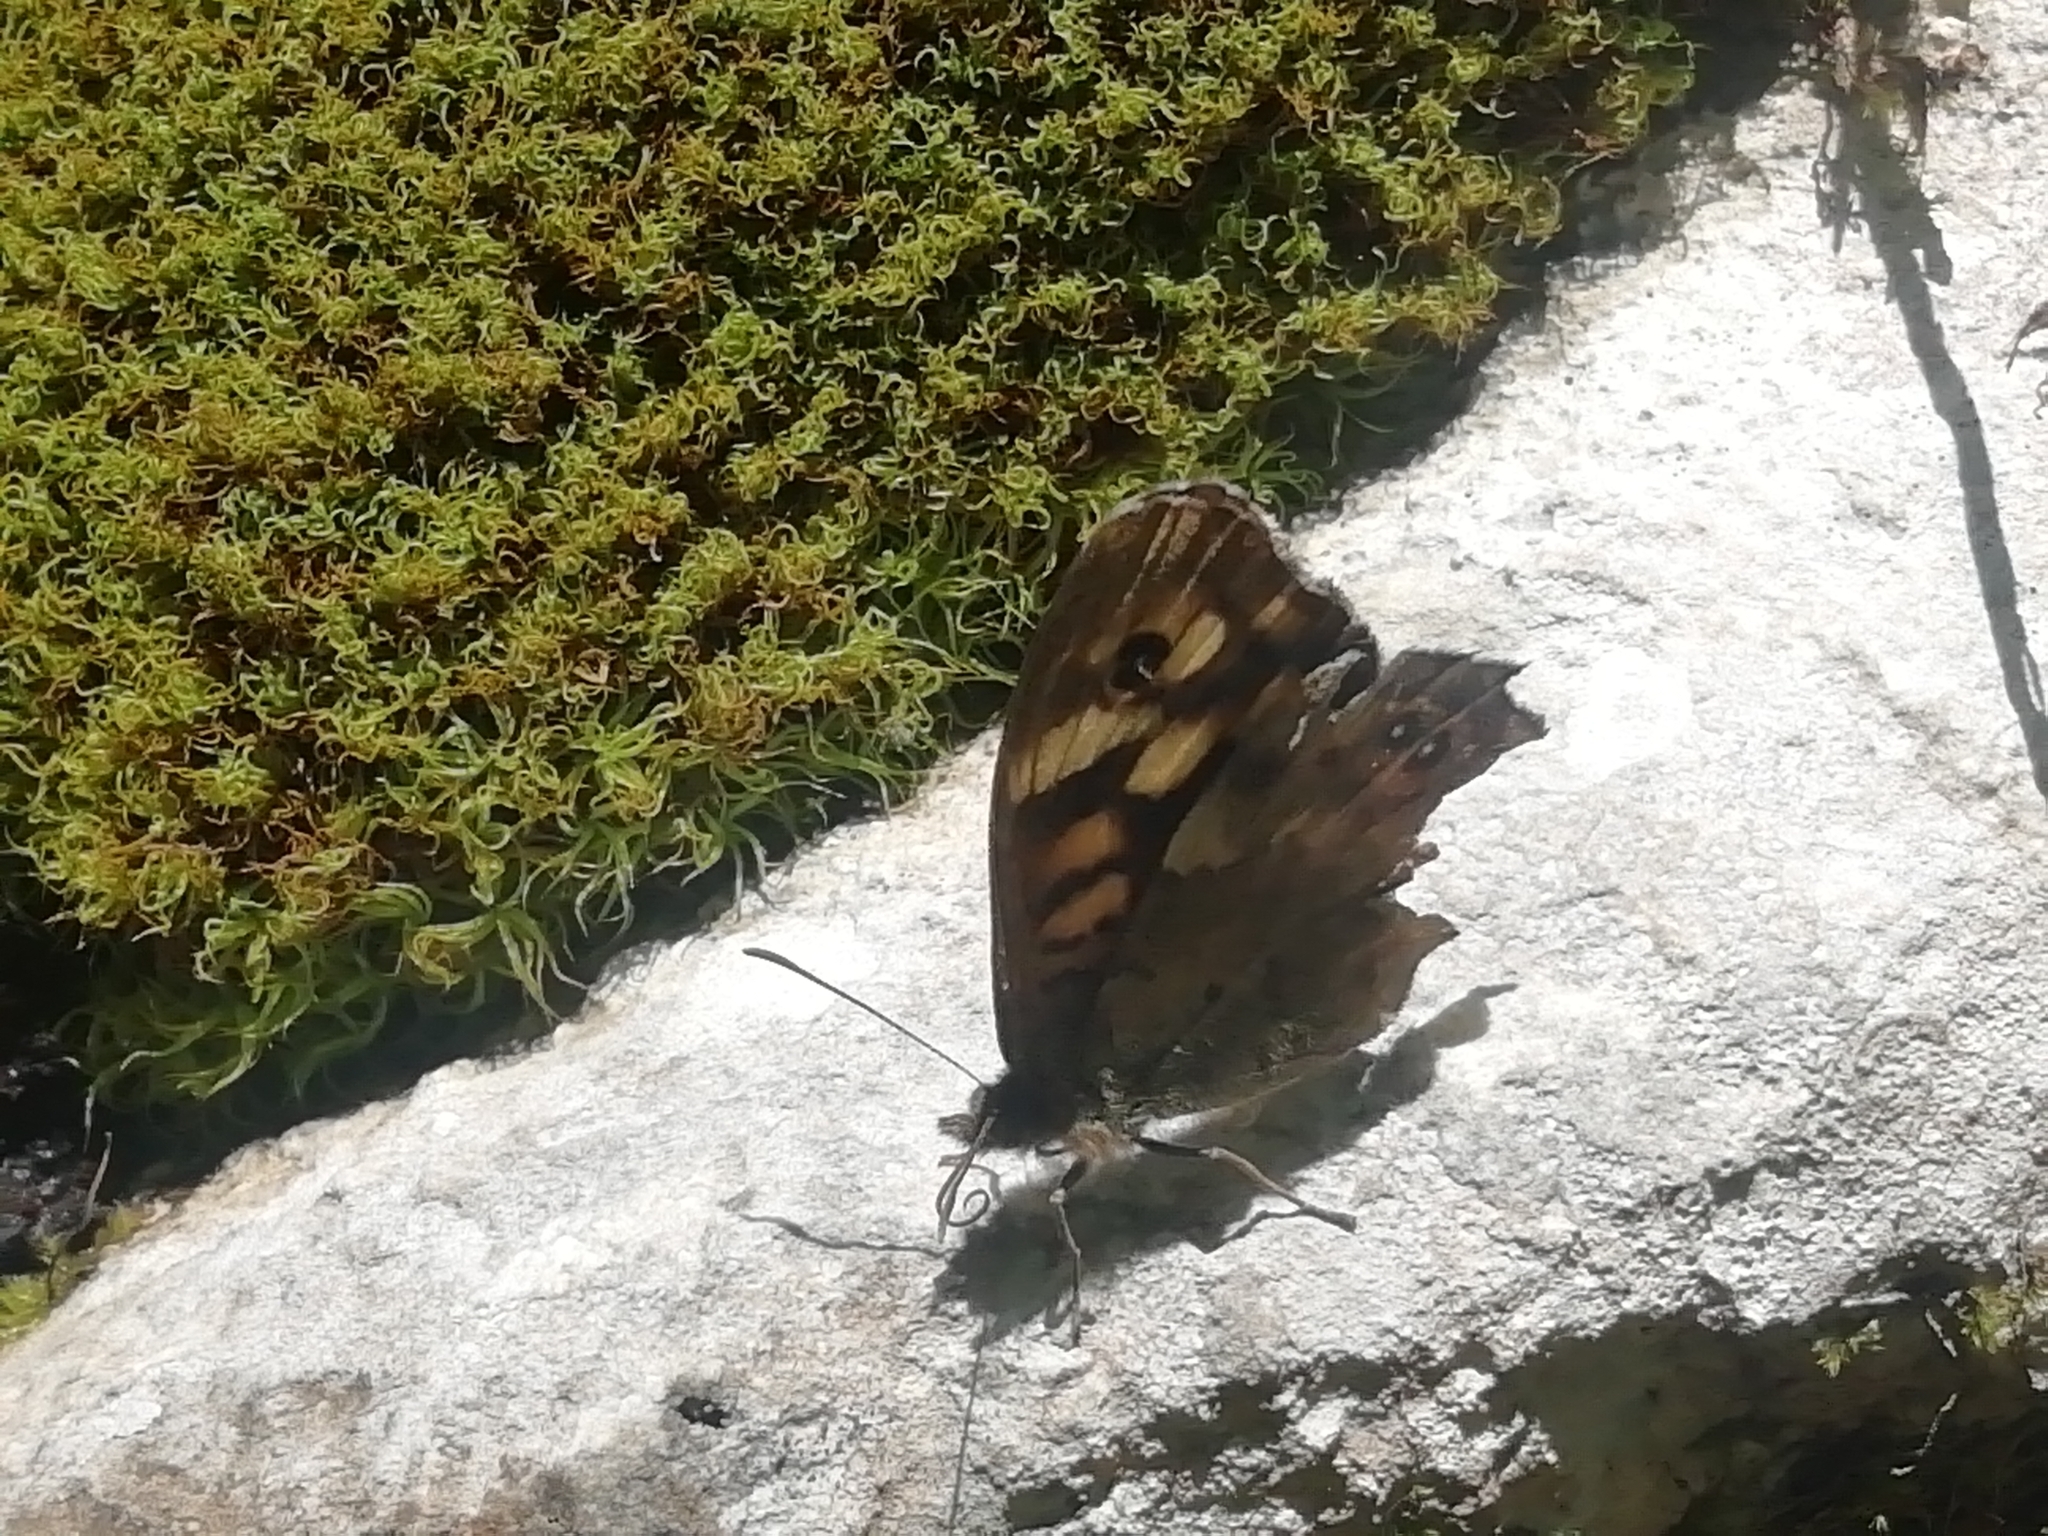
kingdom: Animalia
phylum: Arthropoda
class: Insecta
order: Lepidoptera
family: Nymphalidae
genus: Pararge
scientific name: Pararge aegeria
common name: Speckled wood
